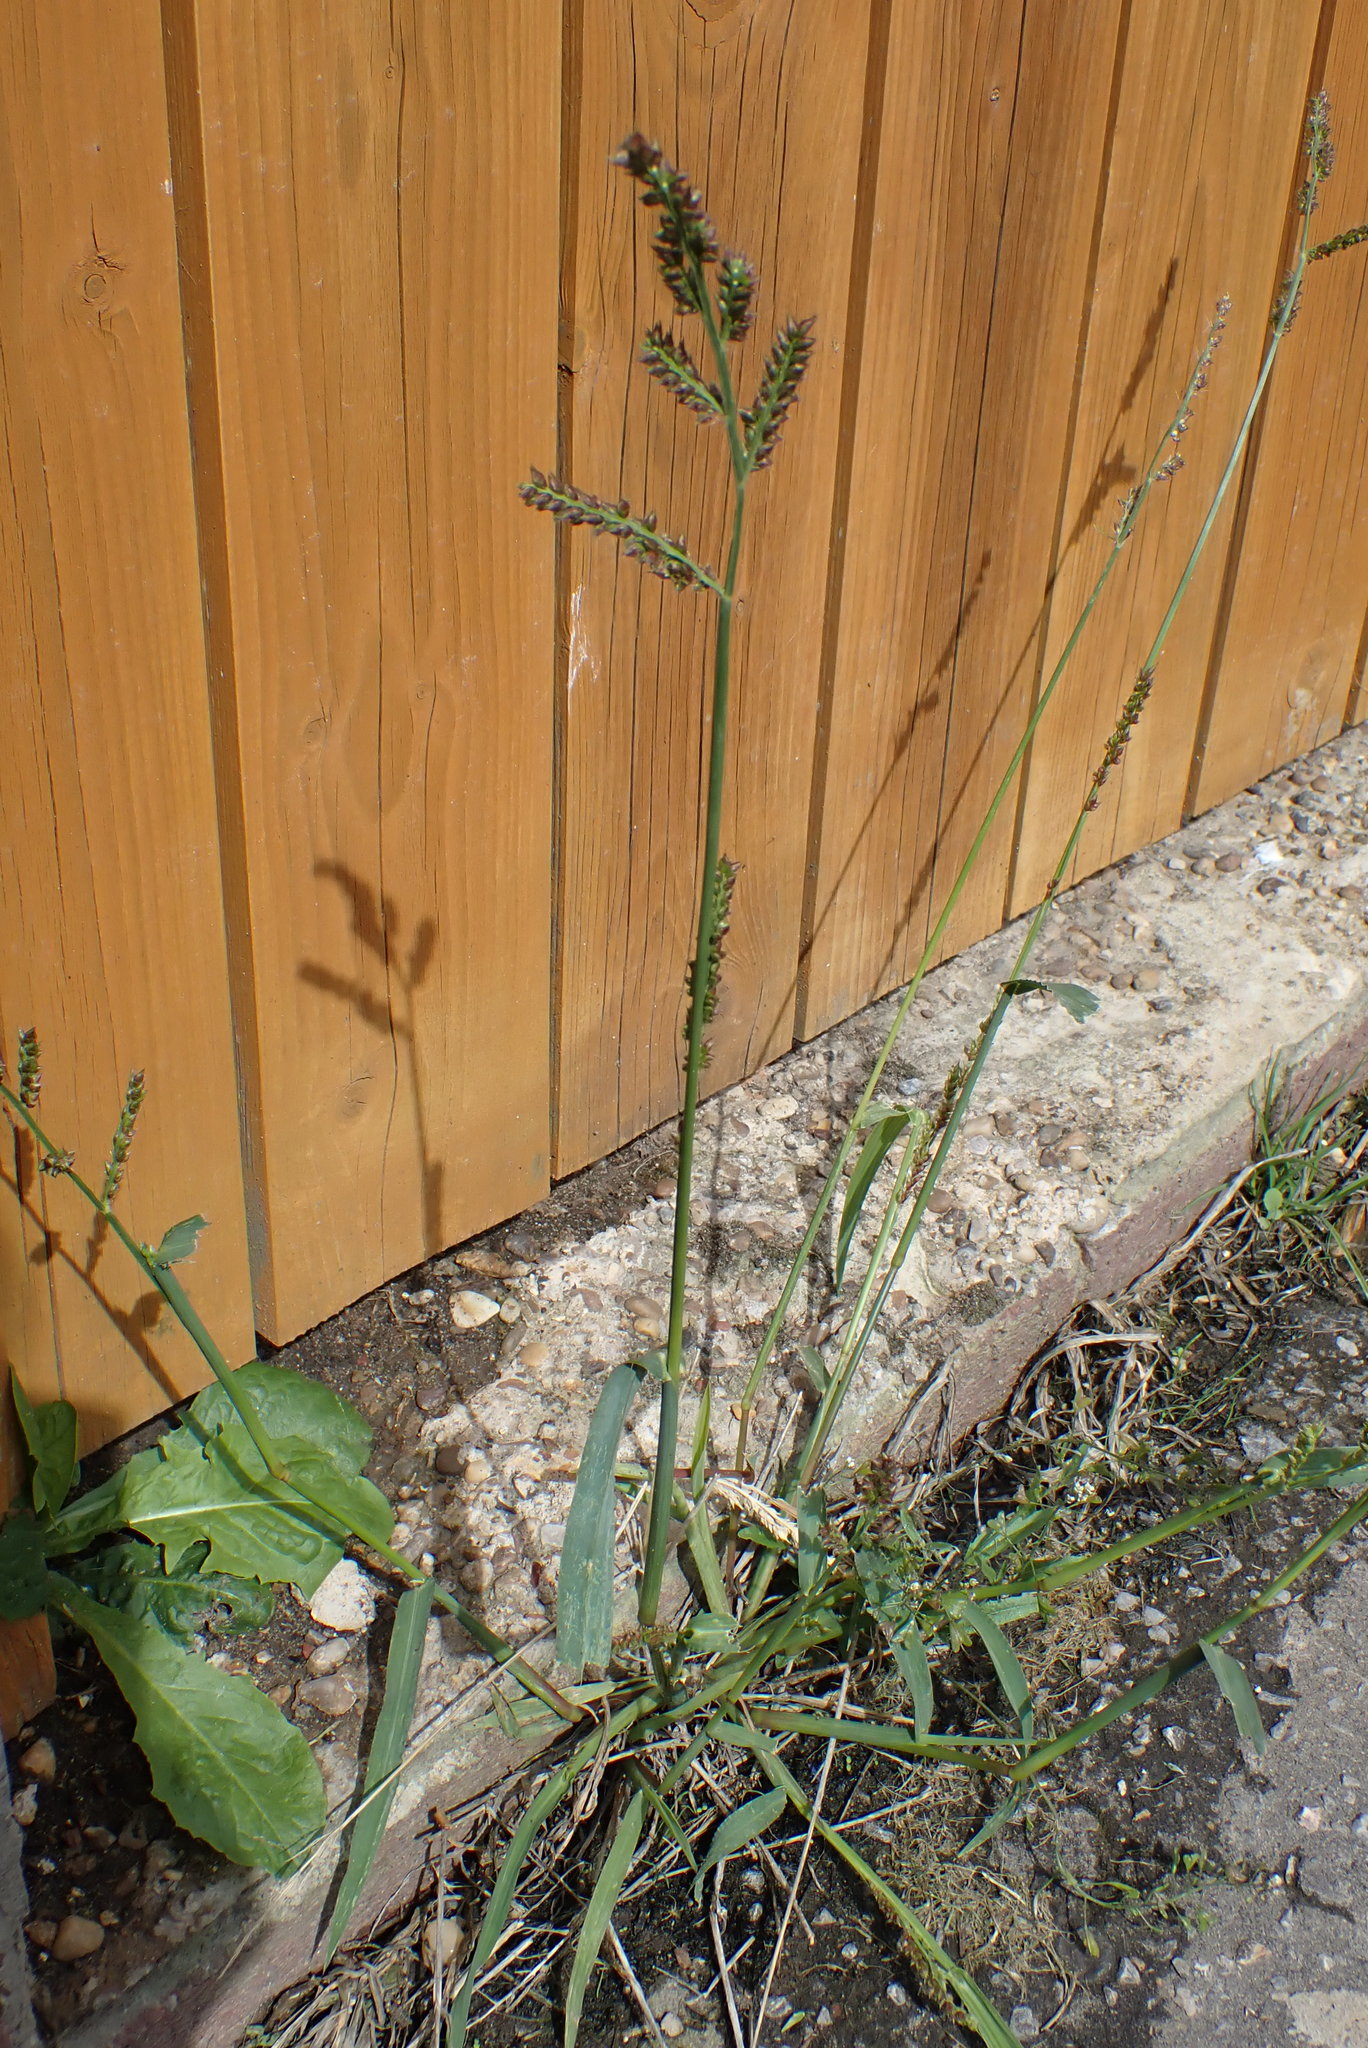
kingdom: Plantae
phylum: Tracheophyta
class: Liliopsida
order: Poales
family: Poaceae
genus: Echinochloa
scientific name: Echinochloa crus-galli
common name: Cockspur
